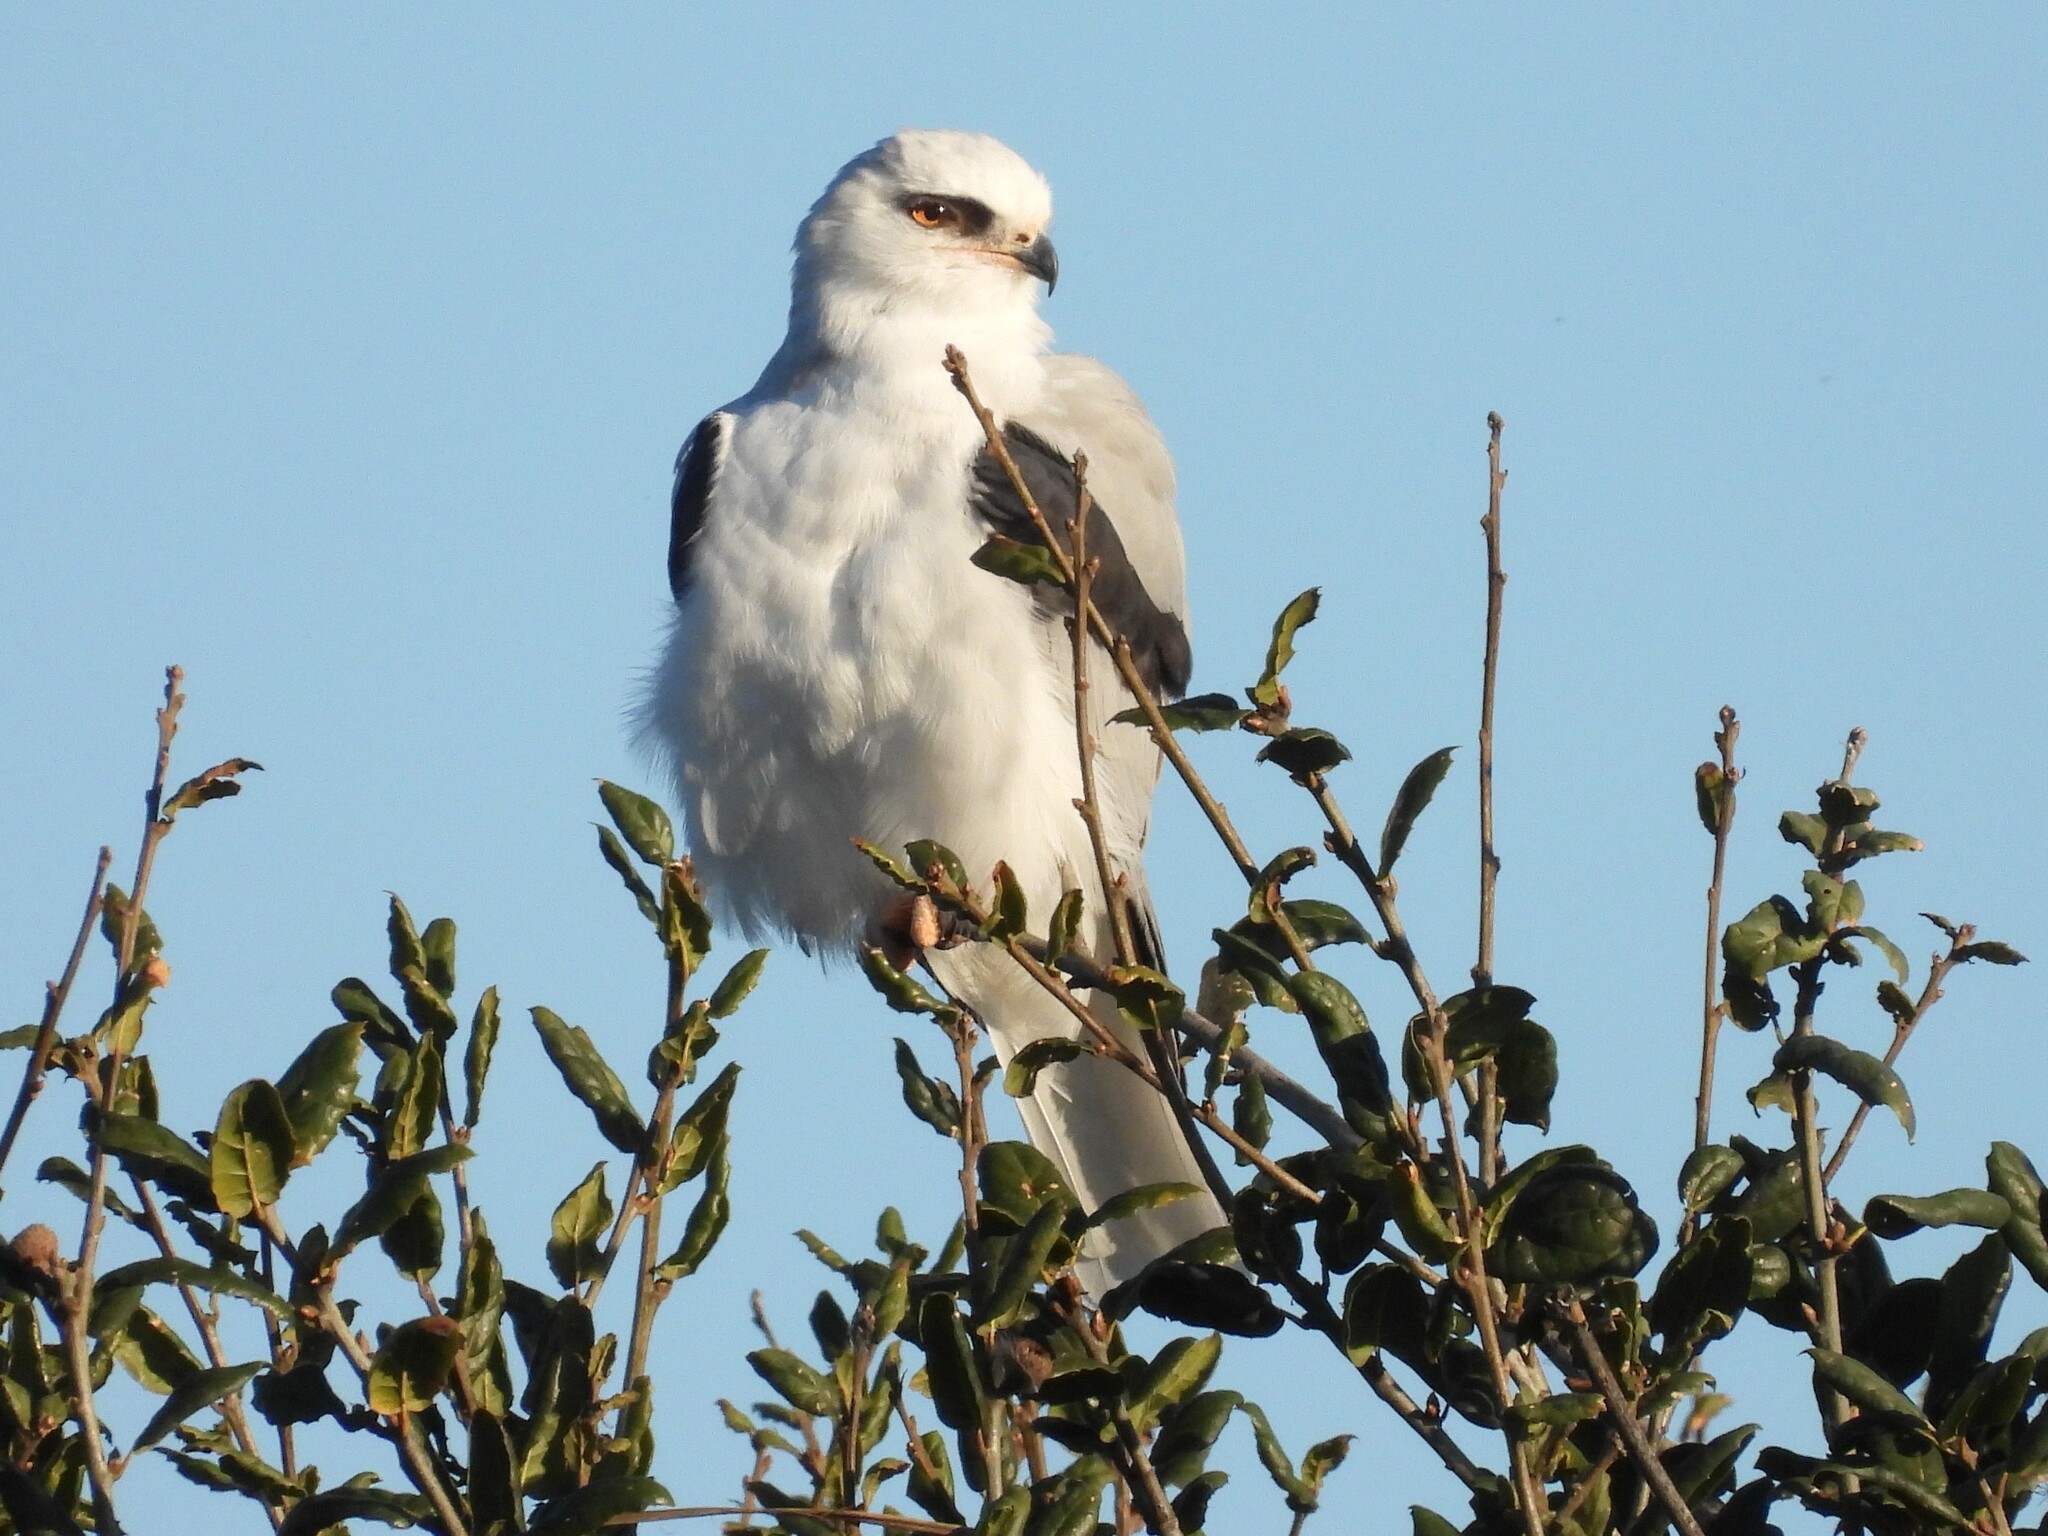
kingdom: Animalia
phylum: Chordata
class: Aves
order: Accipitriformes
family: Accipitridae
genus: Elanus
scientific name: Elanus leucurus
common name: White-tailed kite
